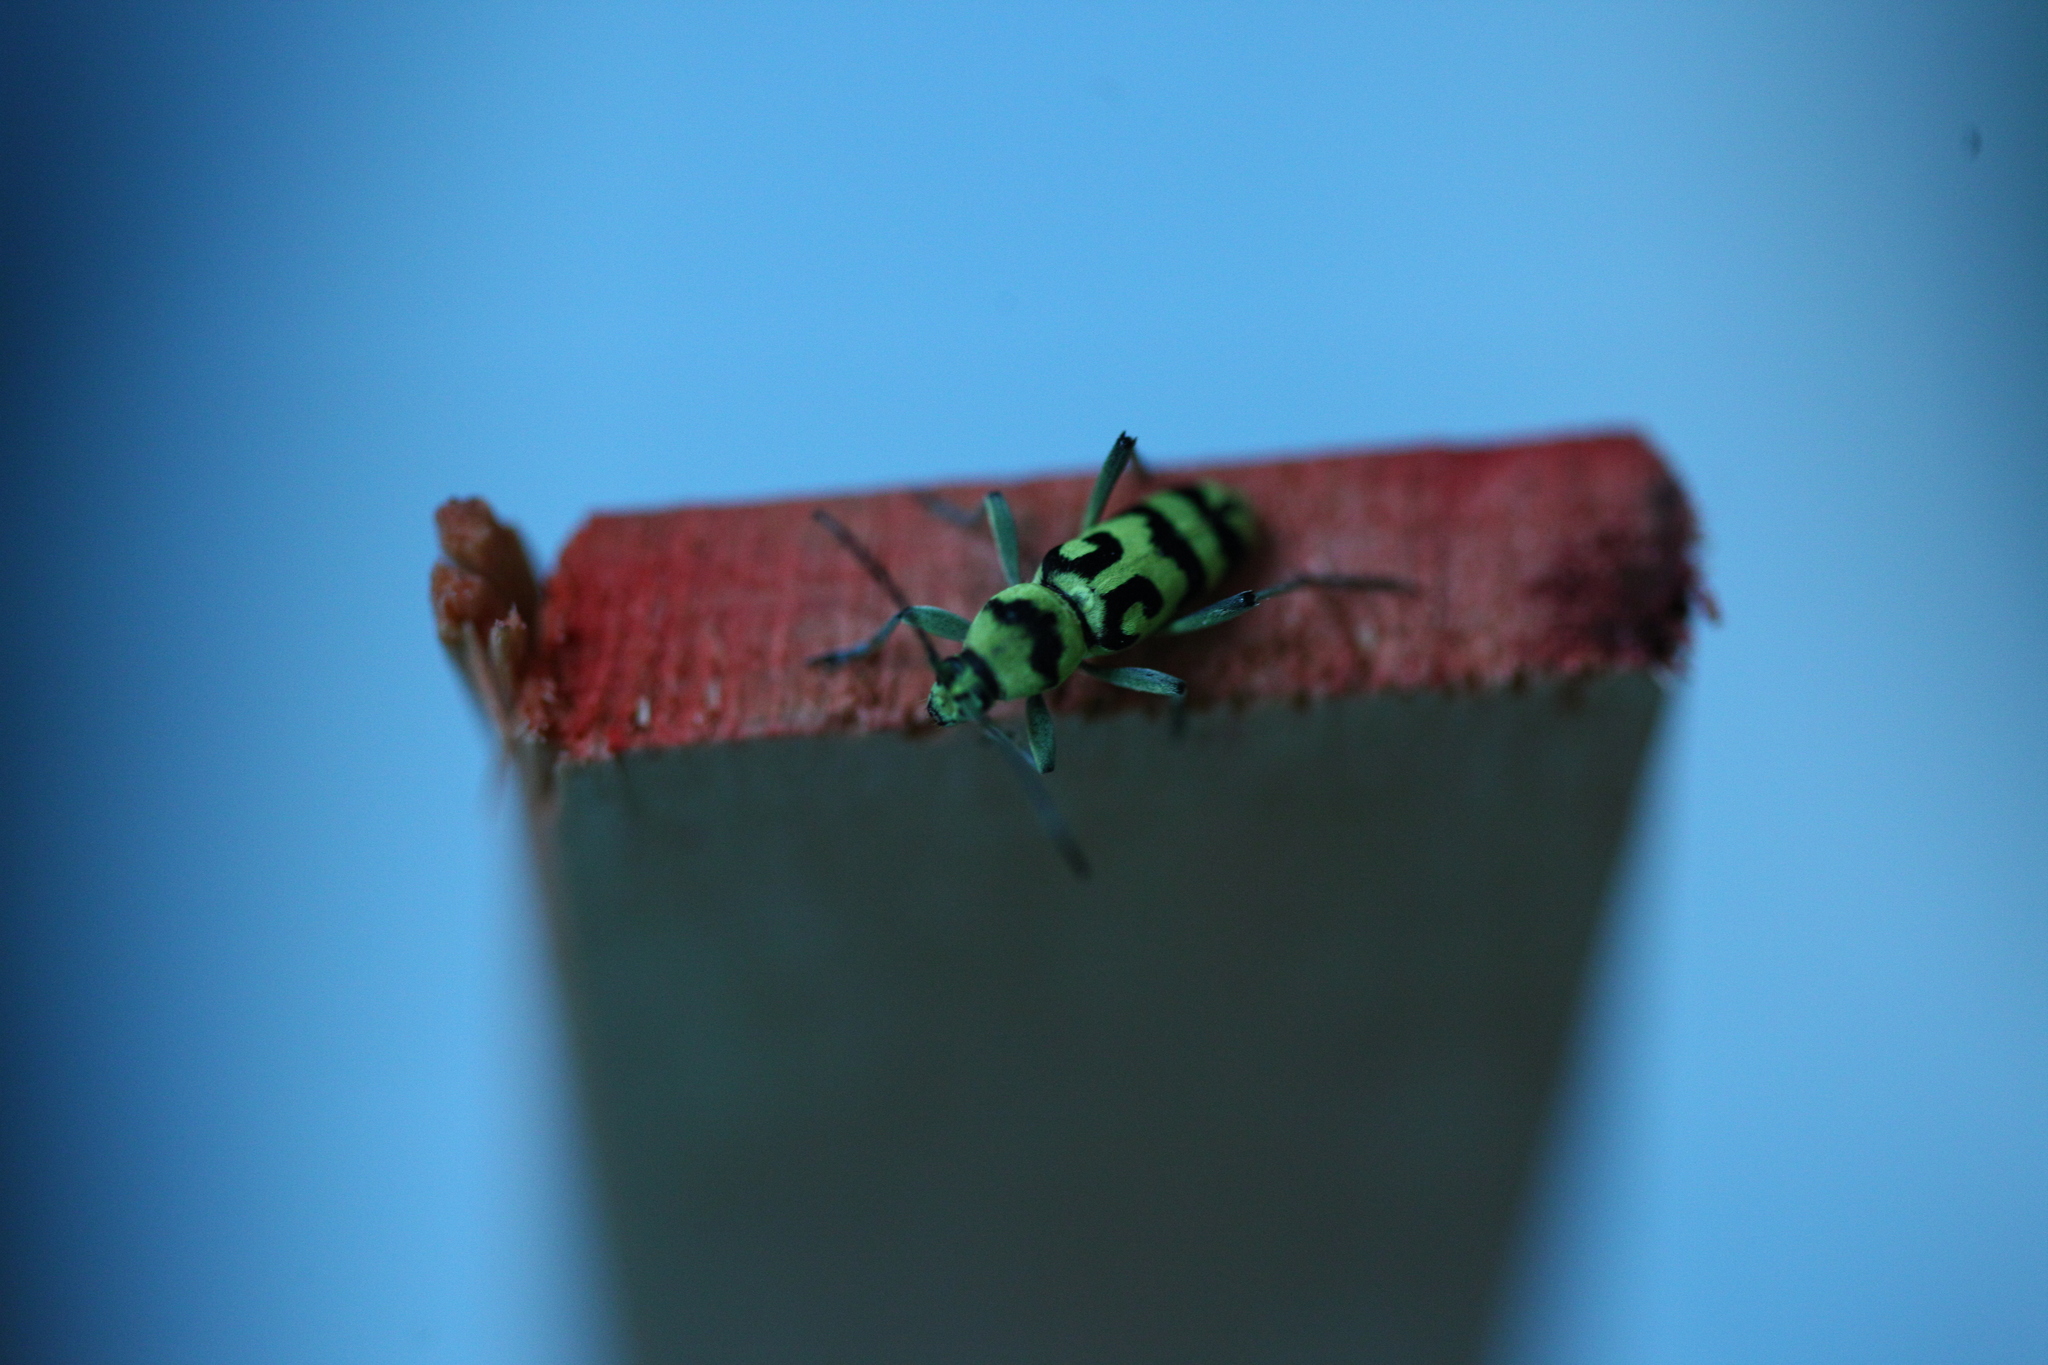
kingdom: Animalia
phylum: Arthropoda
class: Insecta
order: Coleoptera
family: Cerambycidae
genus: Chlorophorus
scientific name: Chlorophorus varius
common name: Grape wood borer
